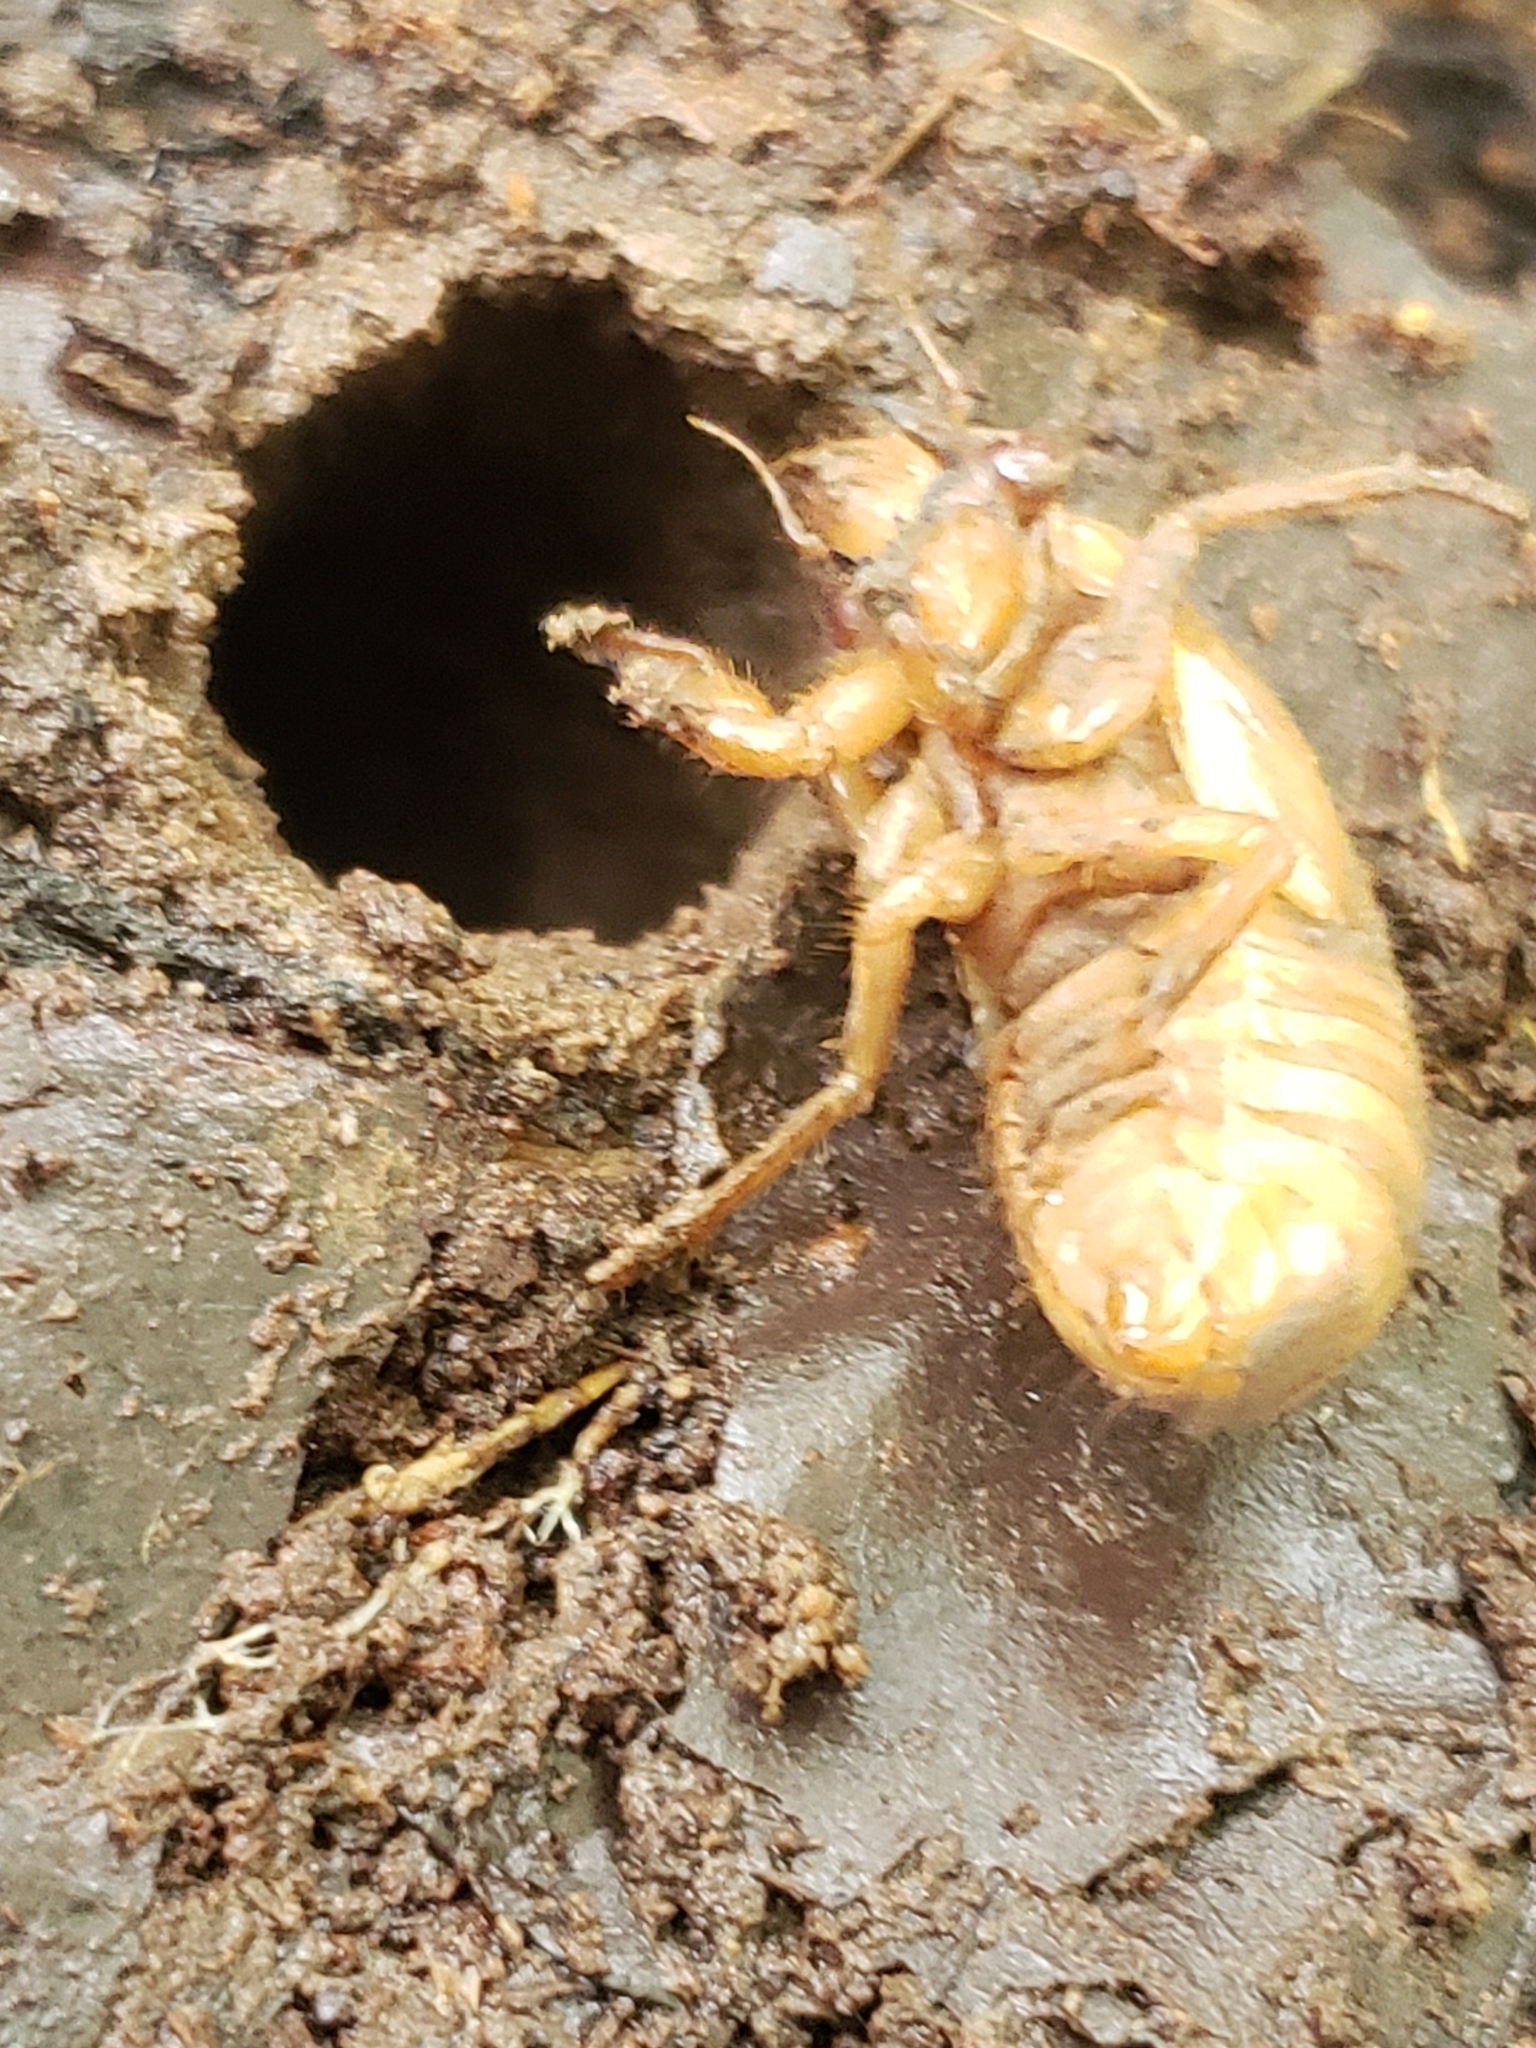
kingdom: Animalia
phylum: Arthropoda
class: Insecta
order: Hemiptera
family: Cicadidae
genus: Magicicada
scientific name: Magicicada
